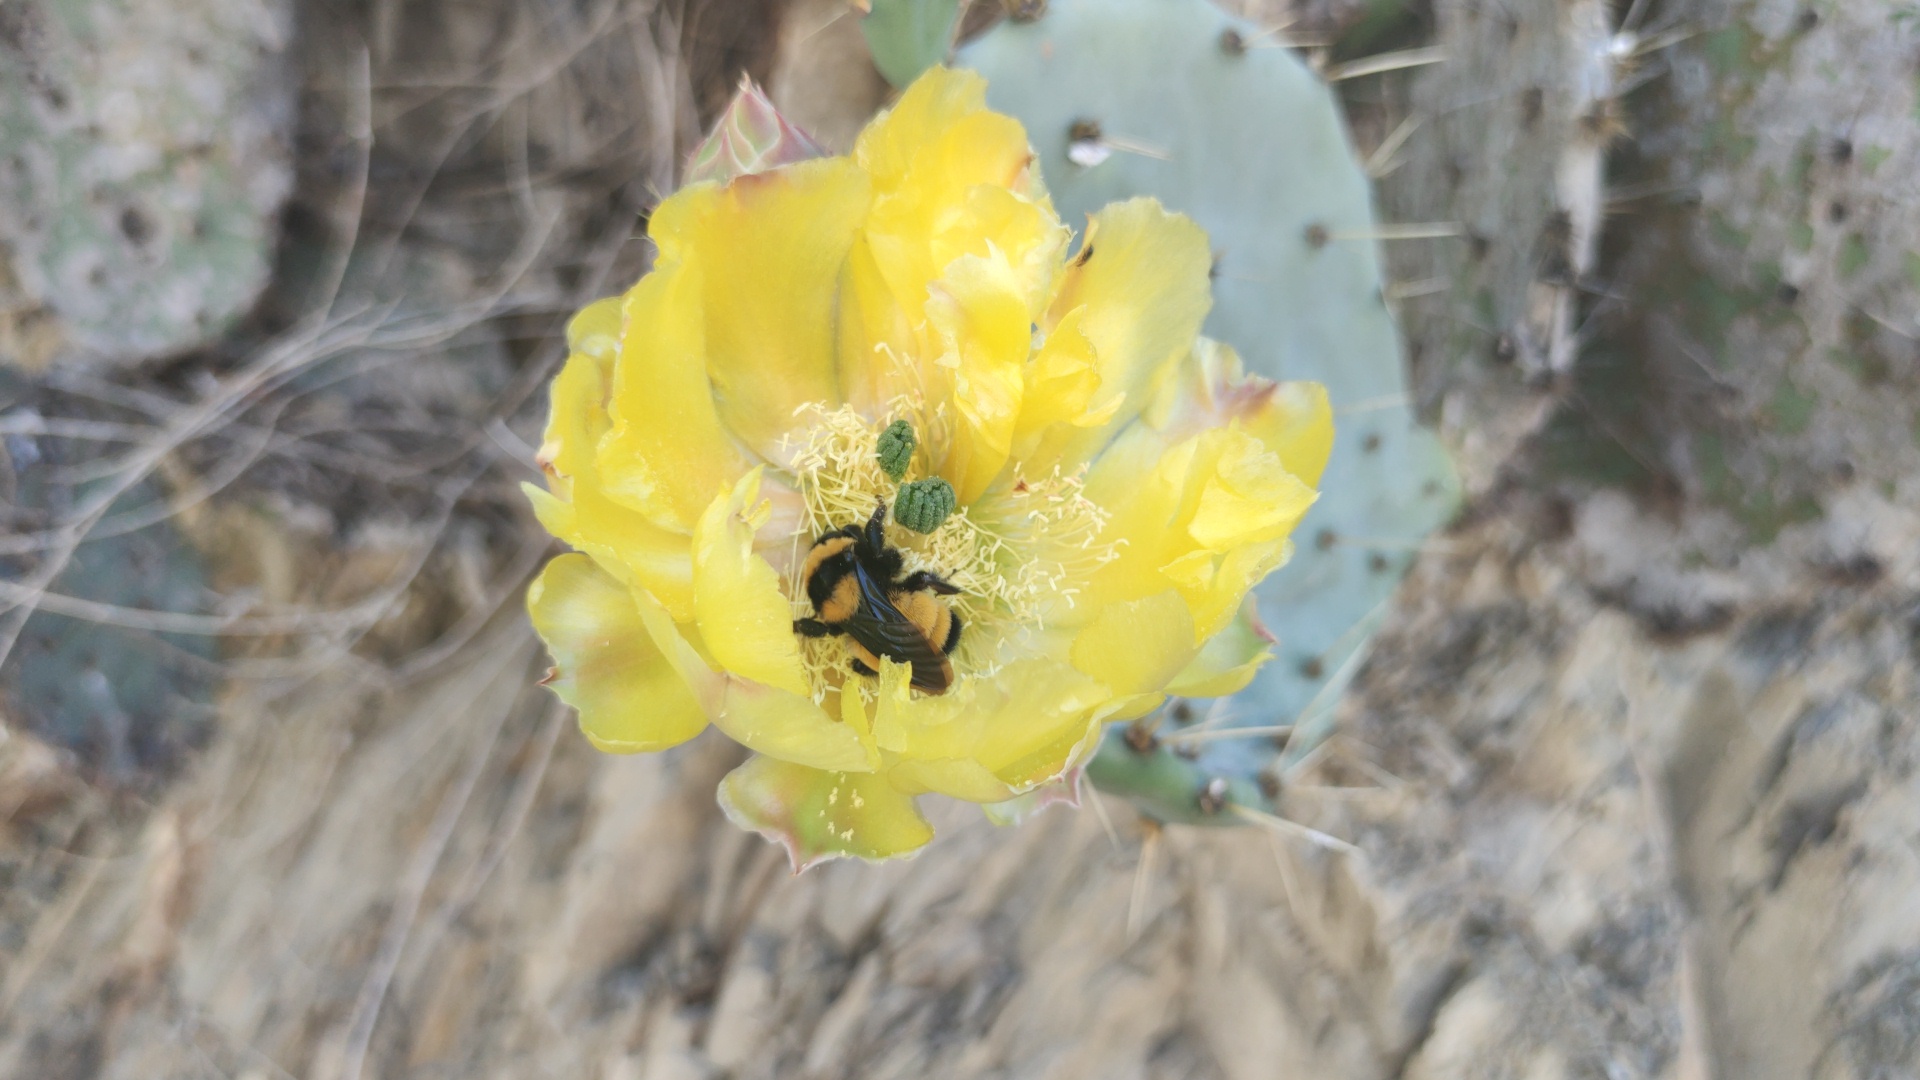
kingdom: Animalia
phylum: Arthropoda
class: Insecta
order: Hymenoptera
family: Apidae
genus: Bombus
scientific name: Bombus sonorus
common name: Sonoran bumble bee
